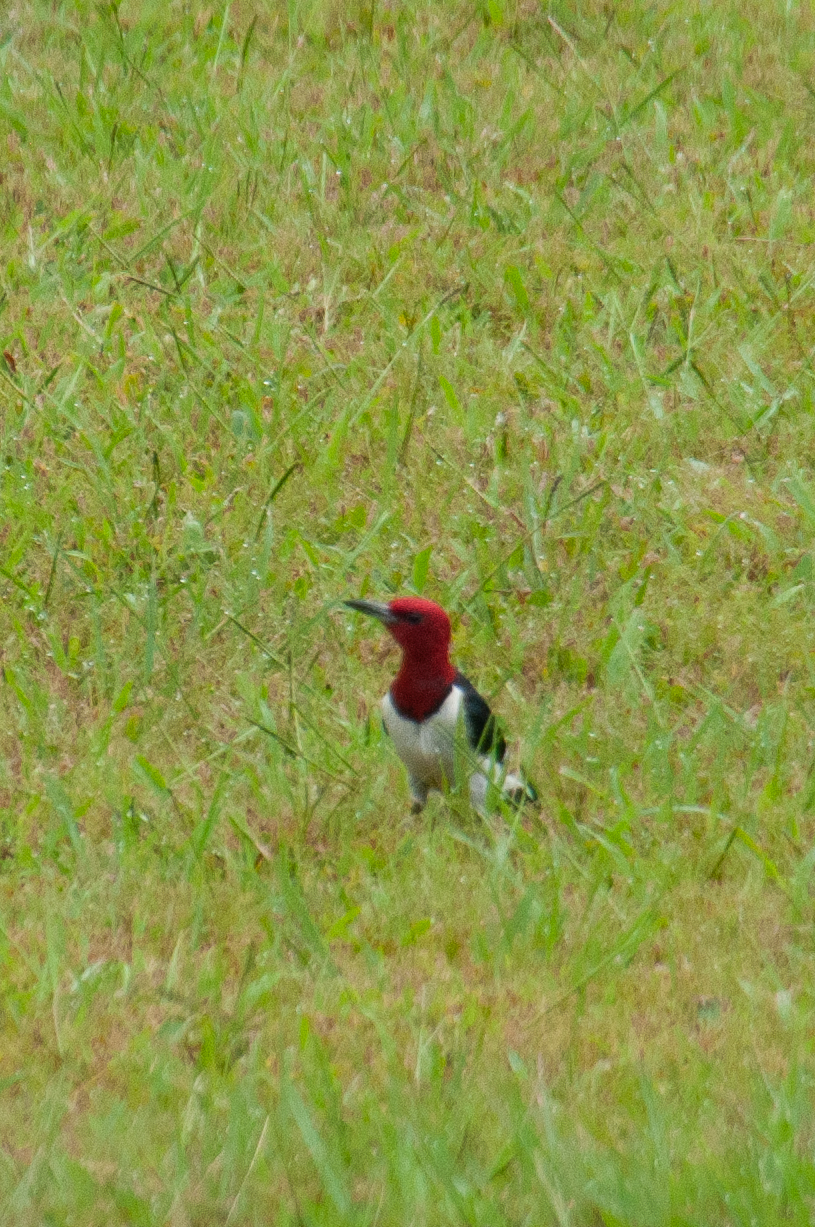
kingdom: Animalia
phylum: Chordata
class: Aves
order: Piciformes
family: Picidae
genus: Melanerpes
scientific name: Melanerpes erythrocephalus
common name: Red-headed woodpecker
